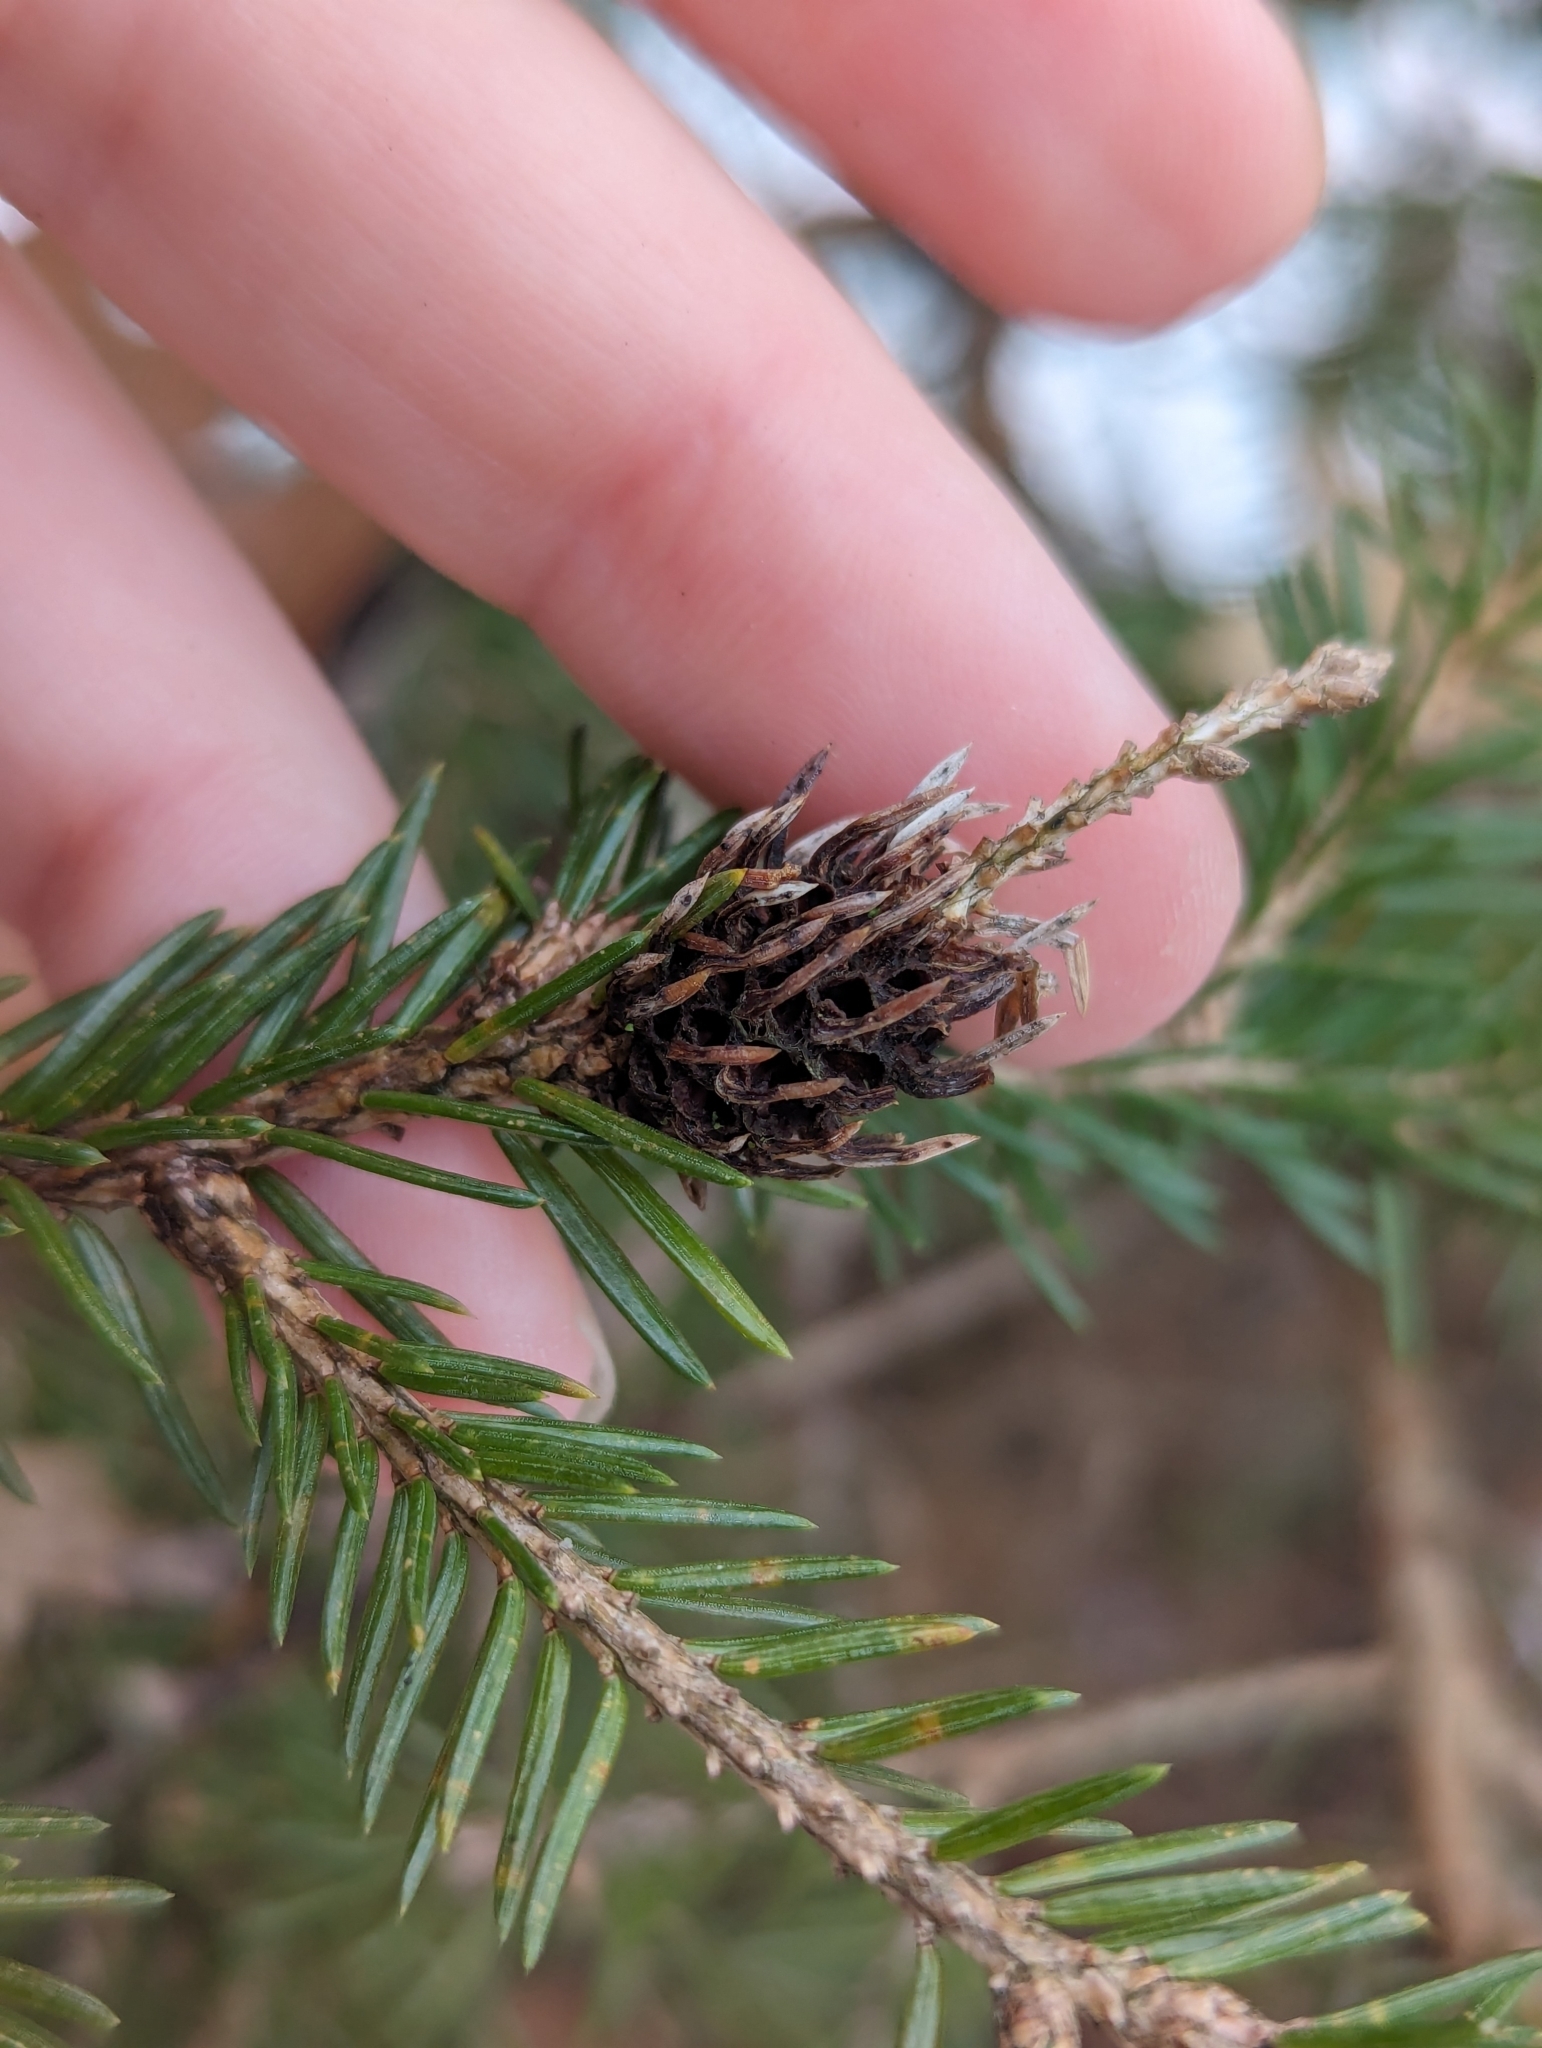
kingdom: Animalia
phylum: Arthropoda
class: Insecta
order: Hemiptera
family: Adelgidae
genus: Adelges
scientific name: Adelges abietis
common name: Eastern spruce gall adelgid
